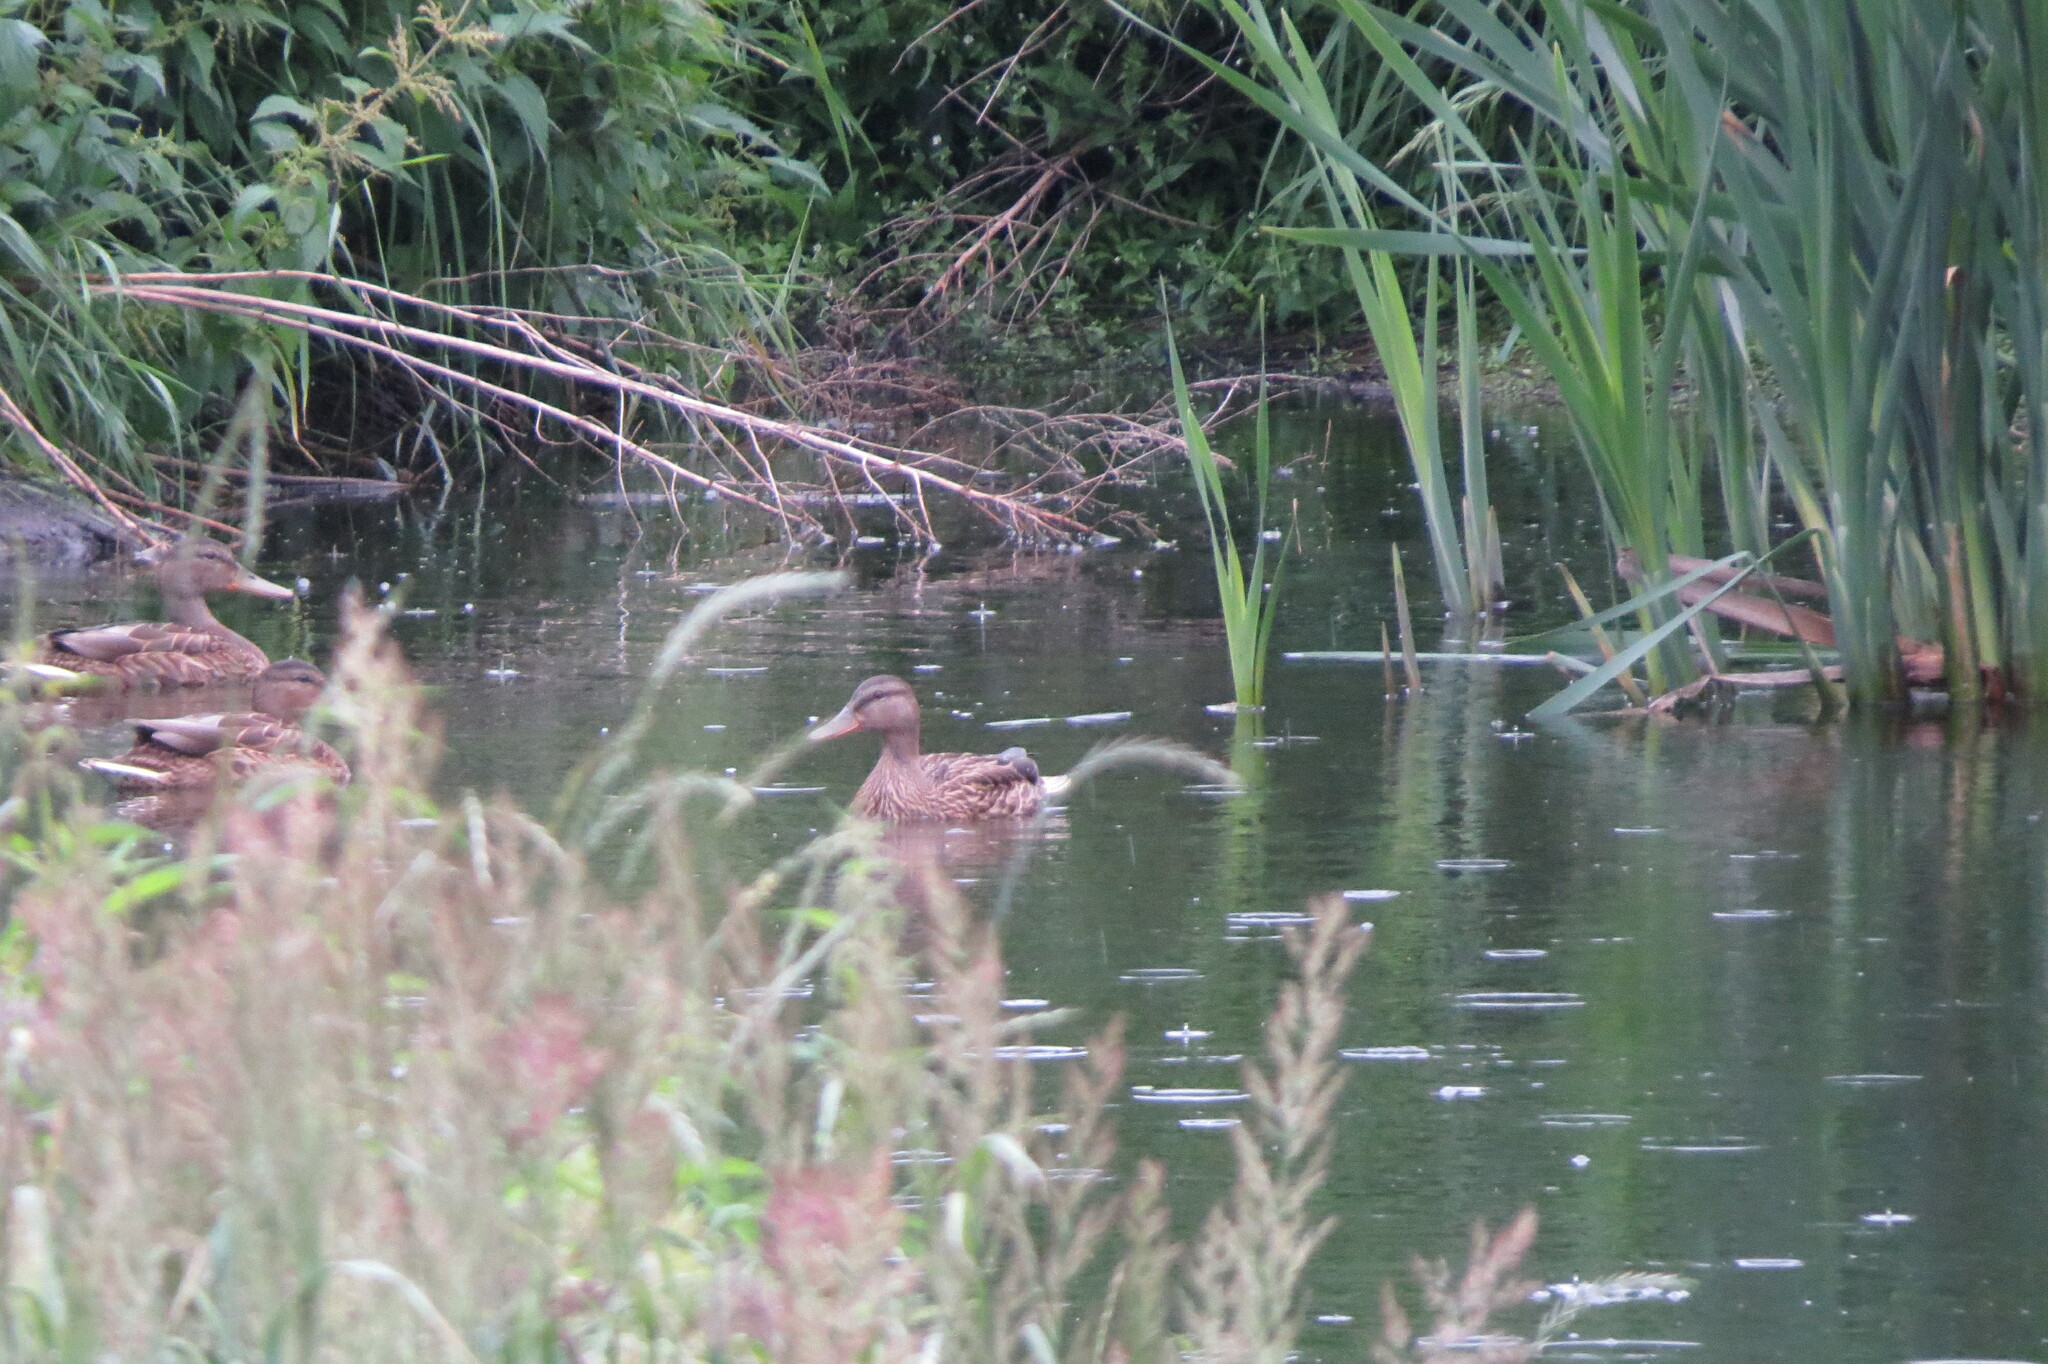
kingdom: Animalia
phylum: Chordata
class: Aves
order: Anseriformes
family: Anatidae
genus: Anas
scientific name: Anas platyrhynchos
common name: Mallard
